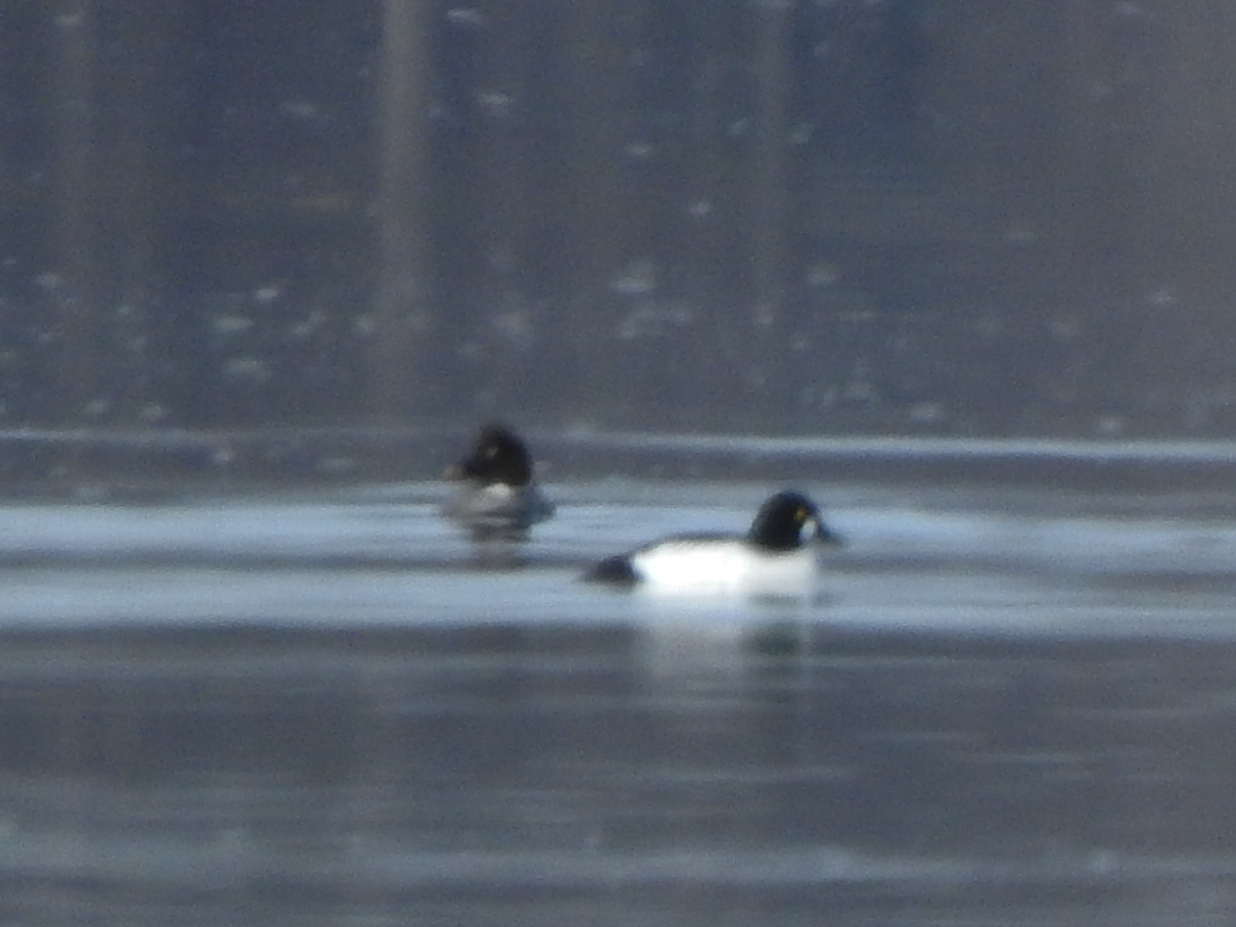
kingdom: Animalia
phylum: Chordata
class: Aves
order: Anseriformes
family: Anatidae
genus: Bucephala
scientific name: Bucephala clangula
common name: Common goldeneye
